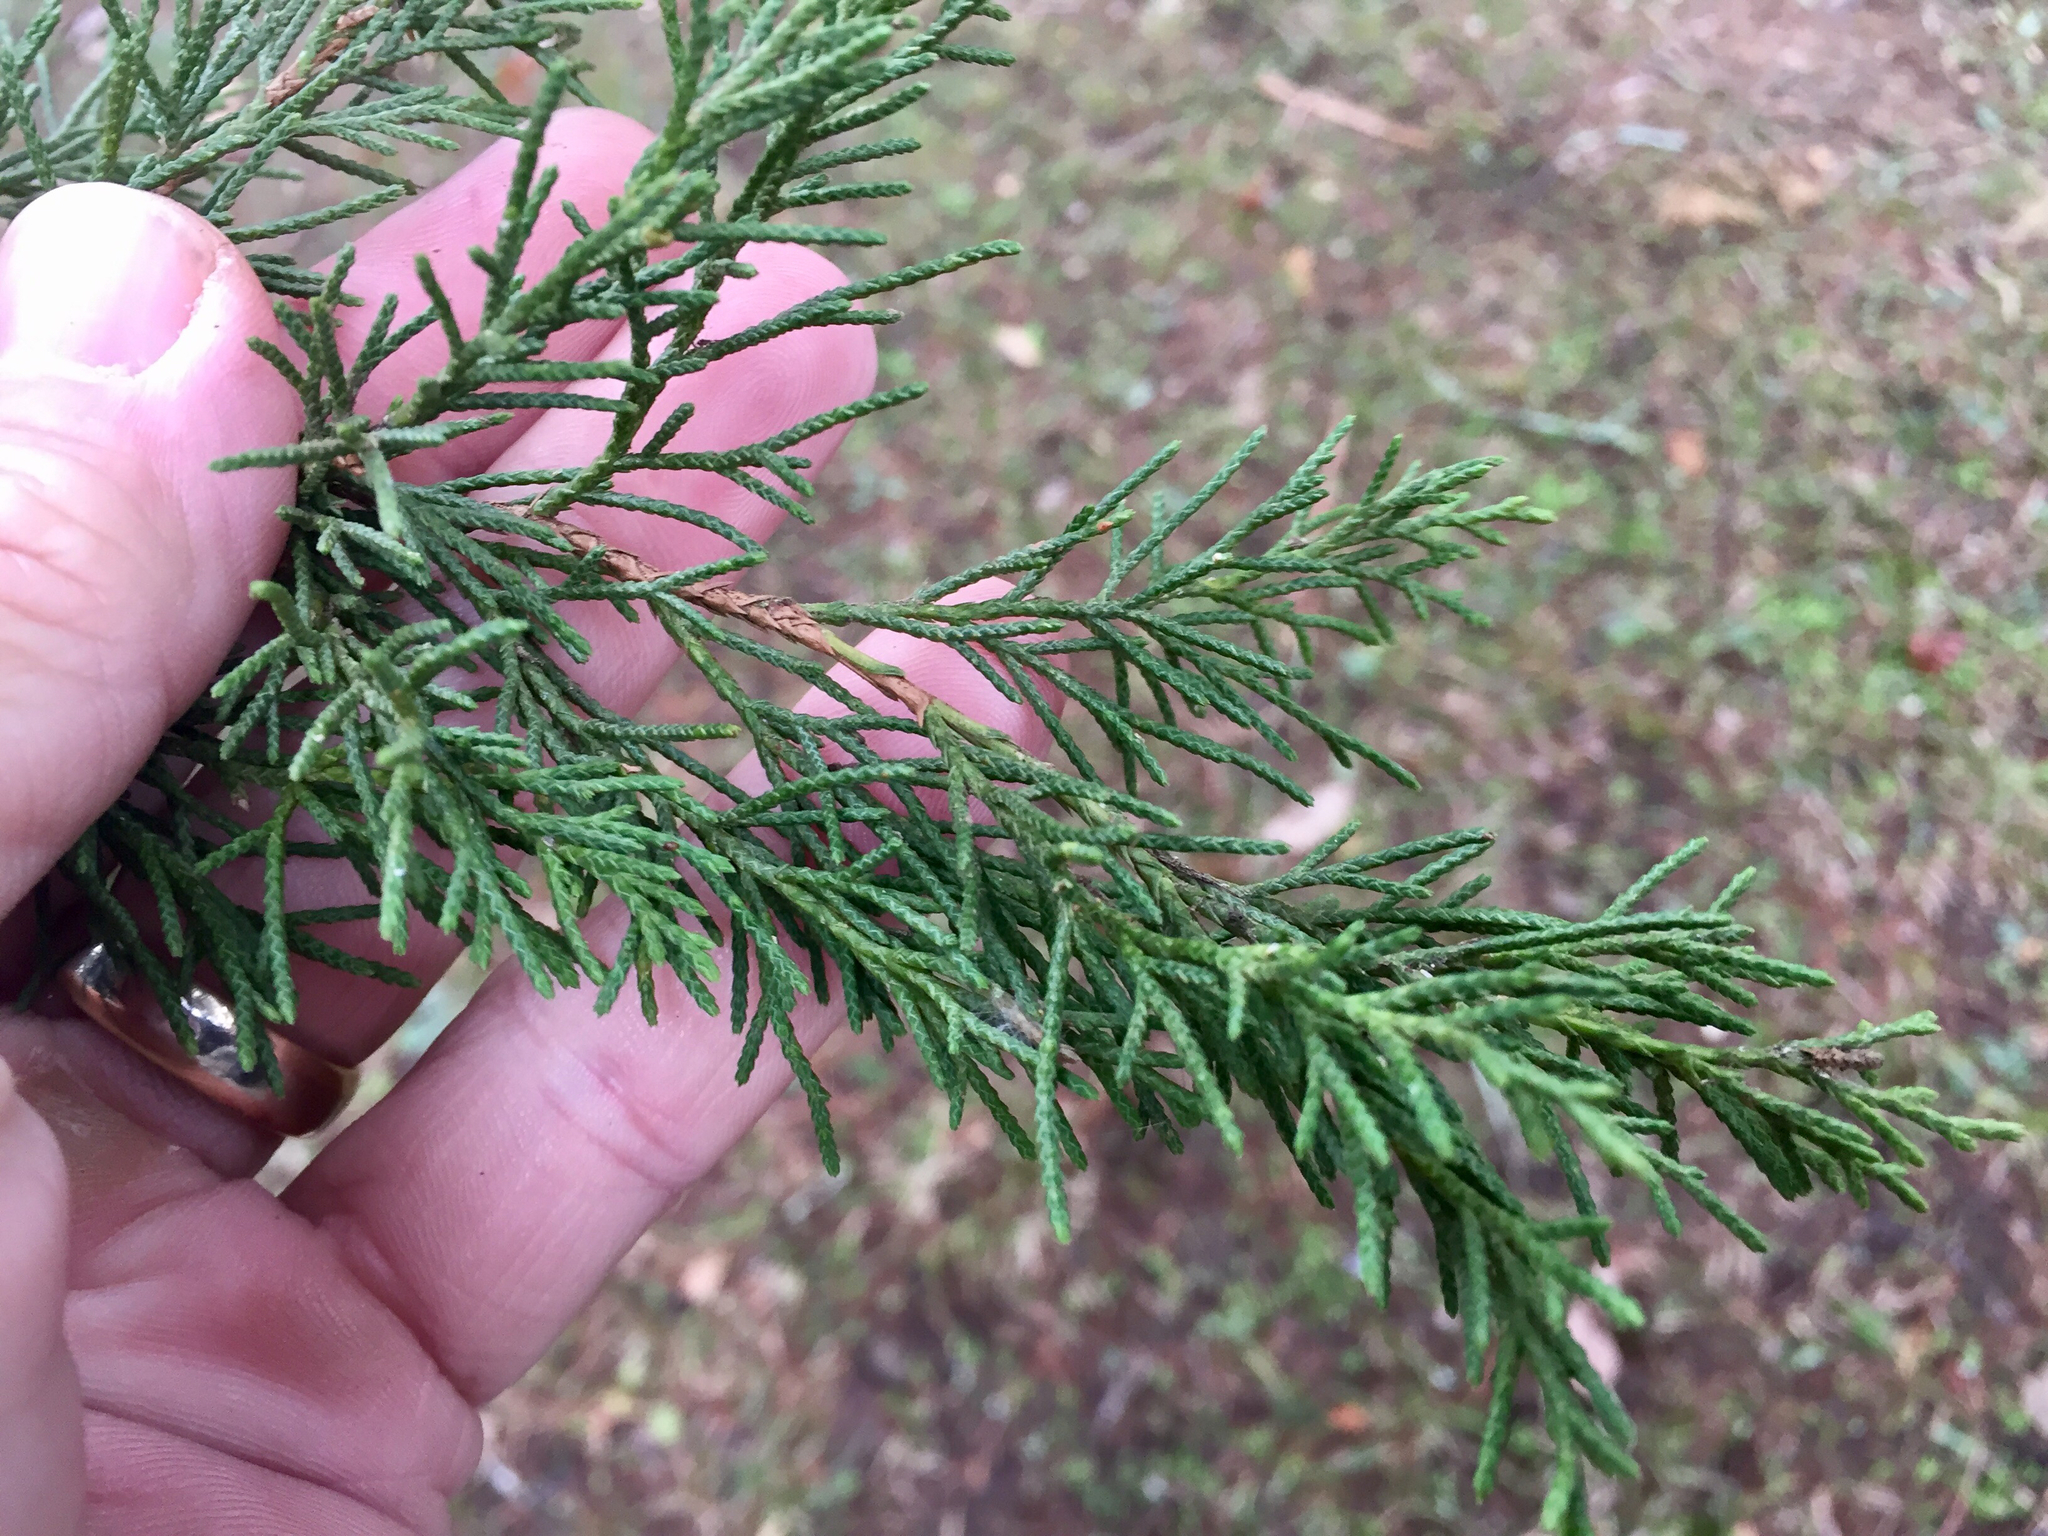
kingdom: Plantae
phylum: Tracheophyta
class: Pinopsida
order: Pinales
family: Cupressaceae
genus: Juniperus
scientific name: Juniperus virginiana
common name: Red juniper
